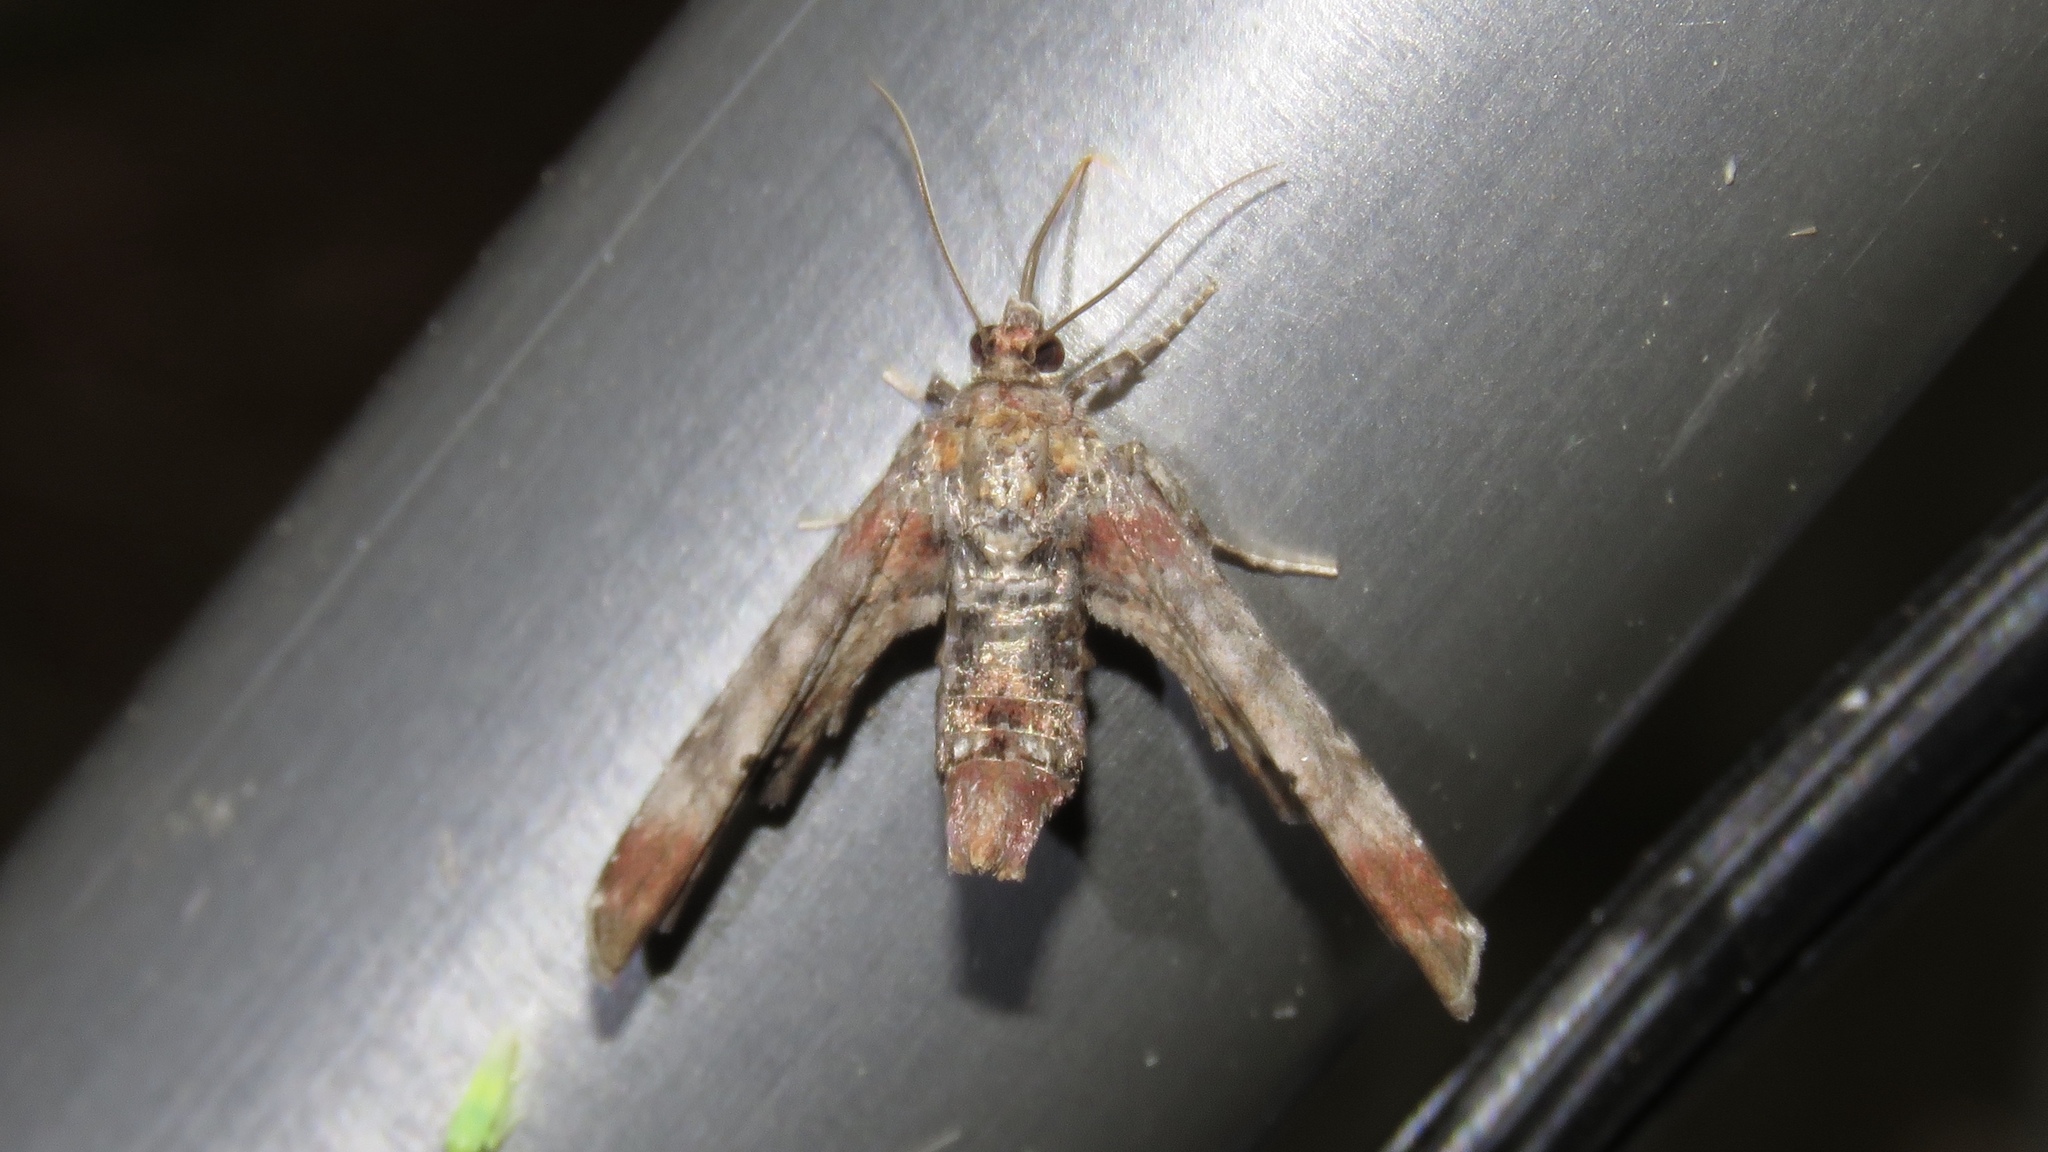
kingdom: Animalia
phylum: Arthropoda
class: Insecta
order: Lepidoptera
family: Euteliidae
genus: Marathyssa
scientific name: Marathyssa inficita
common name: Dark marathyssa moth
